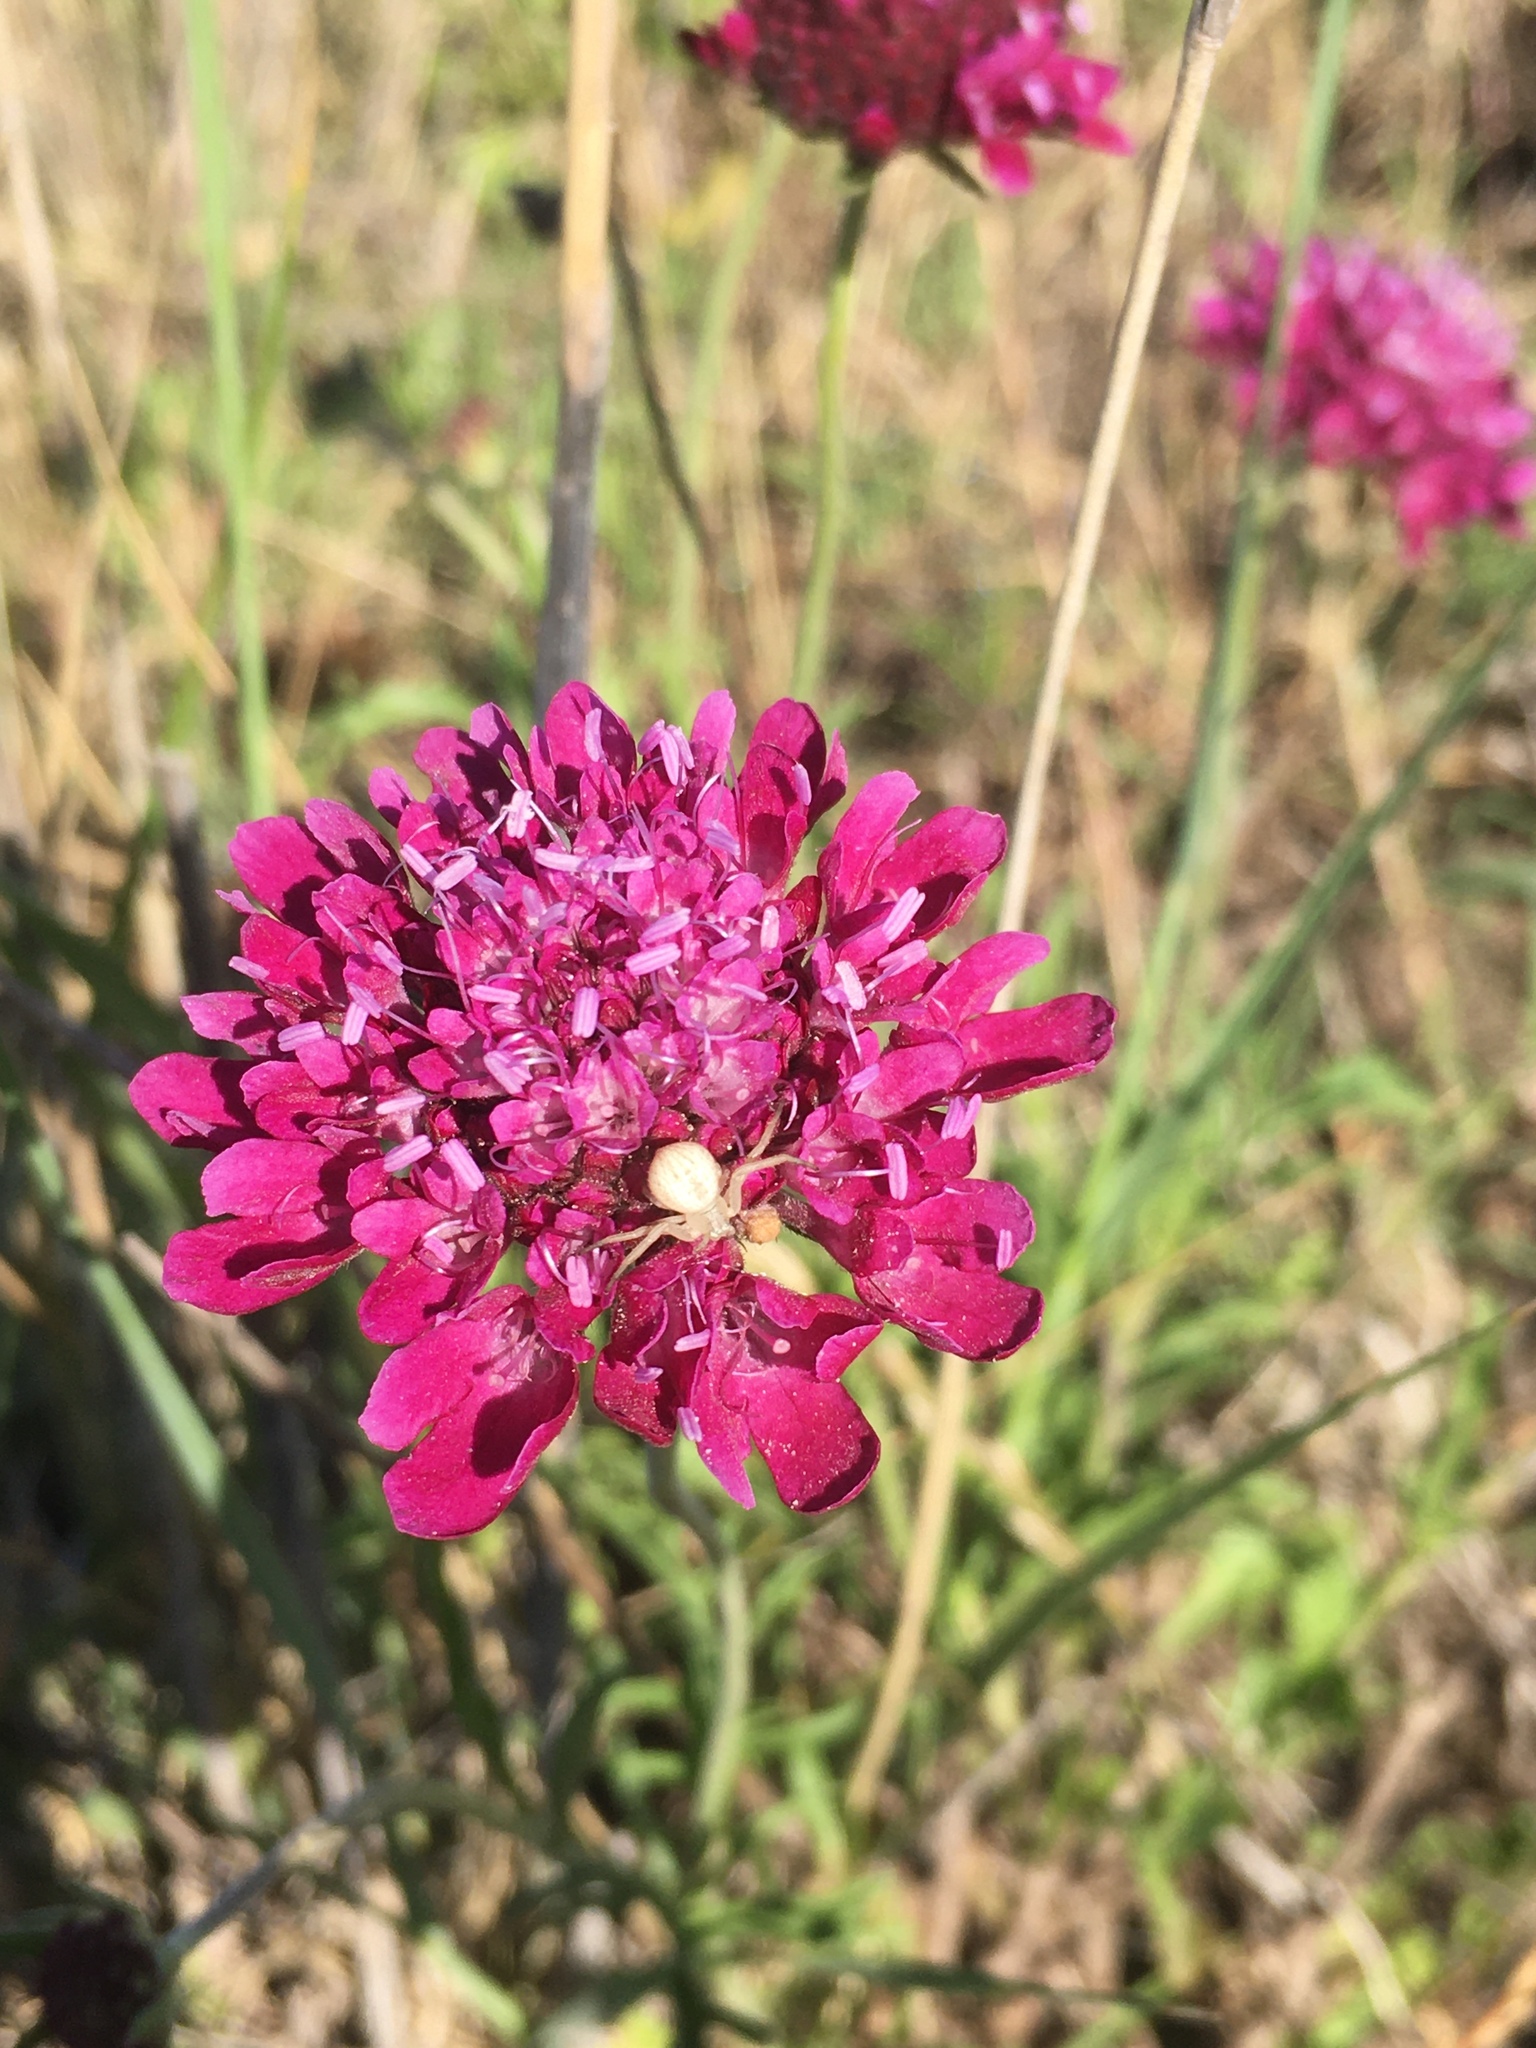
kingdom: Animalia
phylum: Arthropoda
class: Arachnida
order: Araneae
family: Thomisidae
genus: Misumenops
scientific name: Misumenops
